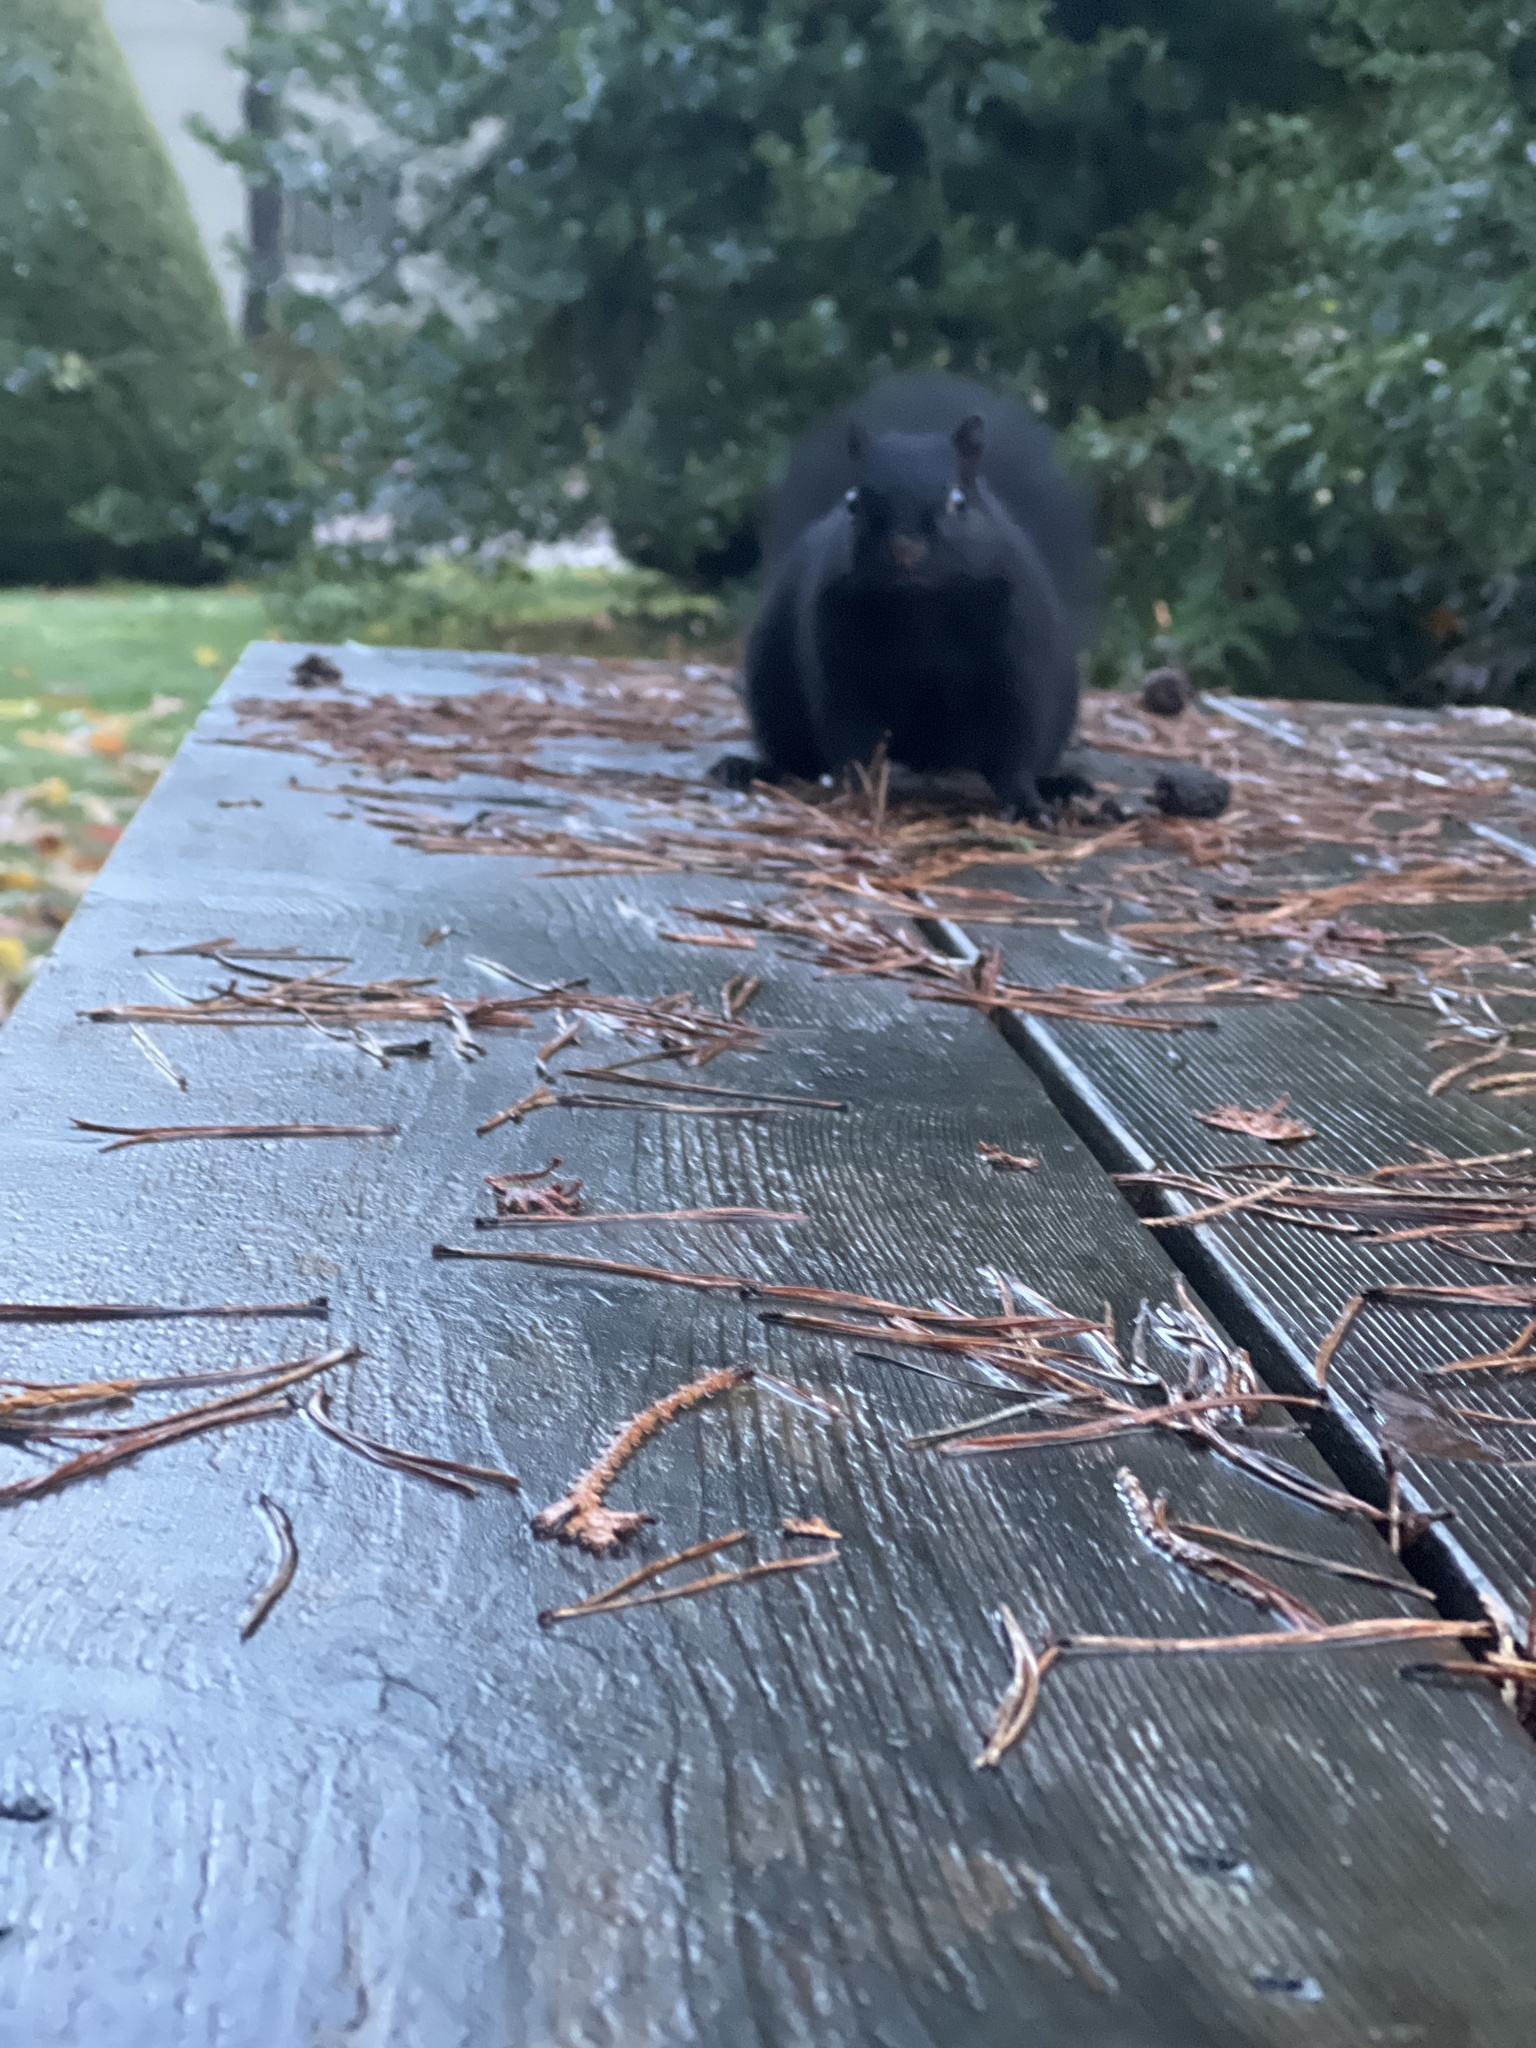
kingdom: Animalia
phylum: Chordata
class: Mammalia
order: Rodentia
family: Sciuridae
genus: Sciurus
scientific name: Sciurus carolinensis
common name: Eastern gray squirrel
